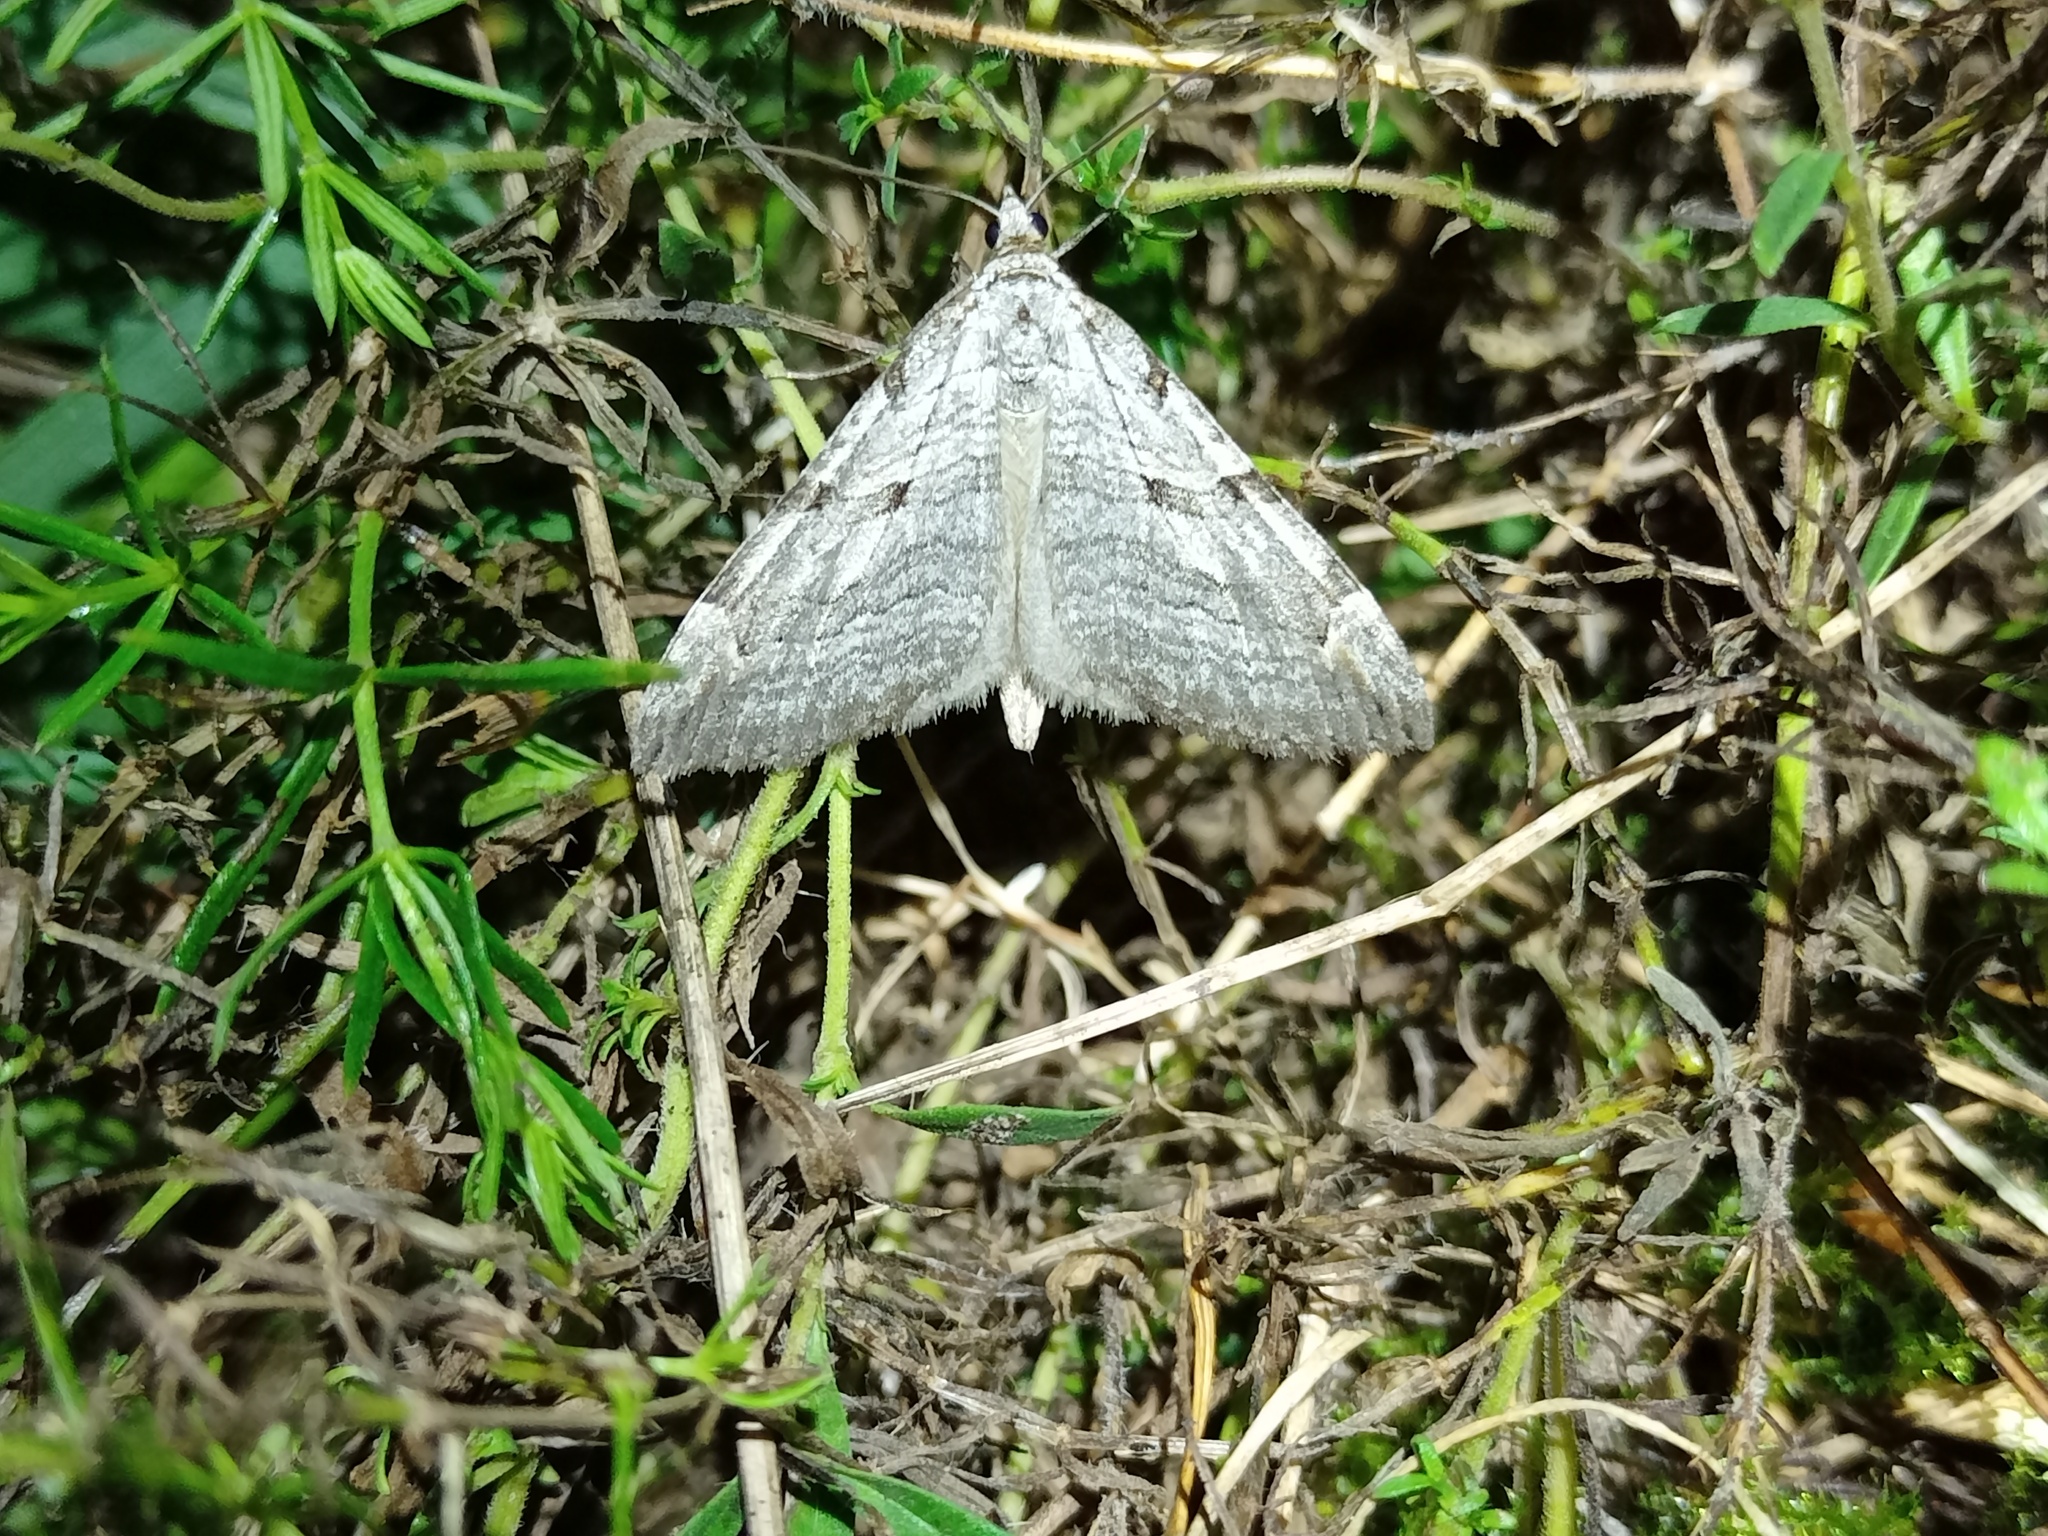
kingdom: Animalia
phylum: Arthropoda
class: Insecta
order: Lepidoptera
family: Geometridae
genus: Aplocera
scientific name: Aplocera plagiata
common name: Treble-bar
